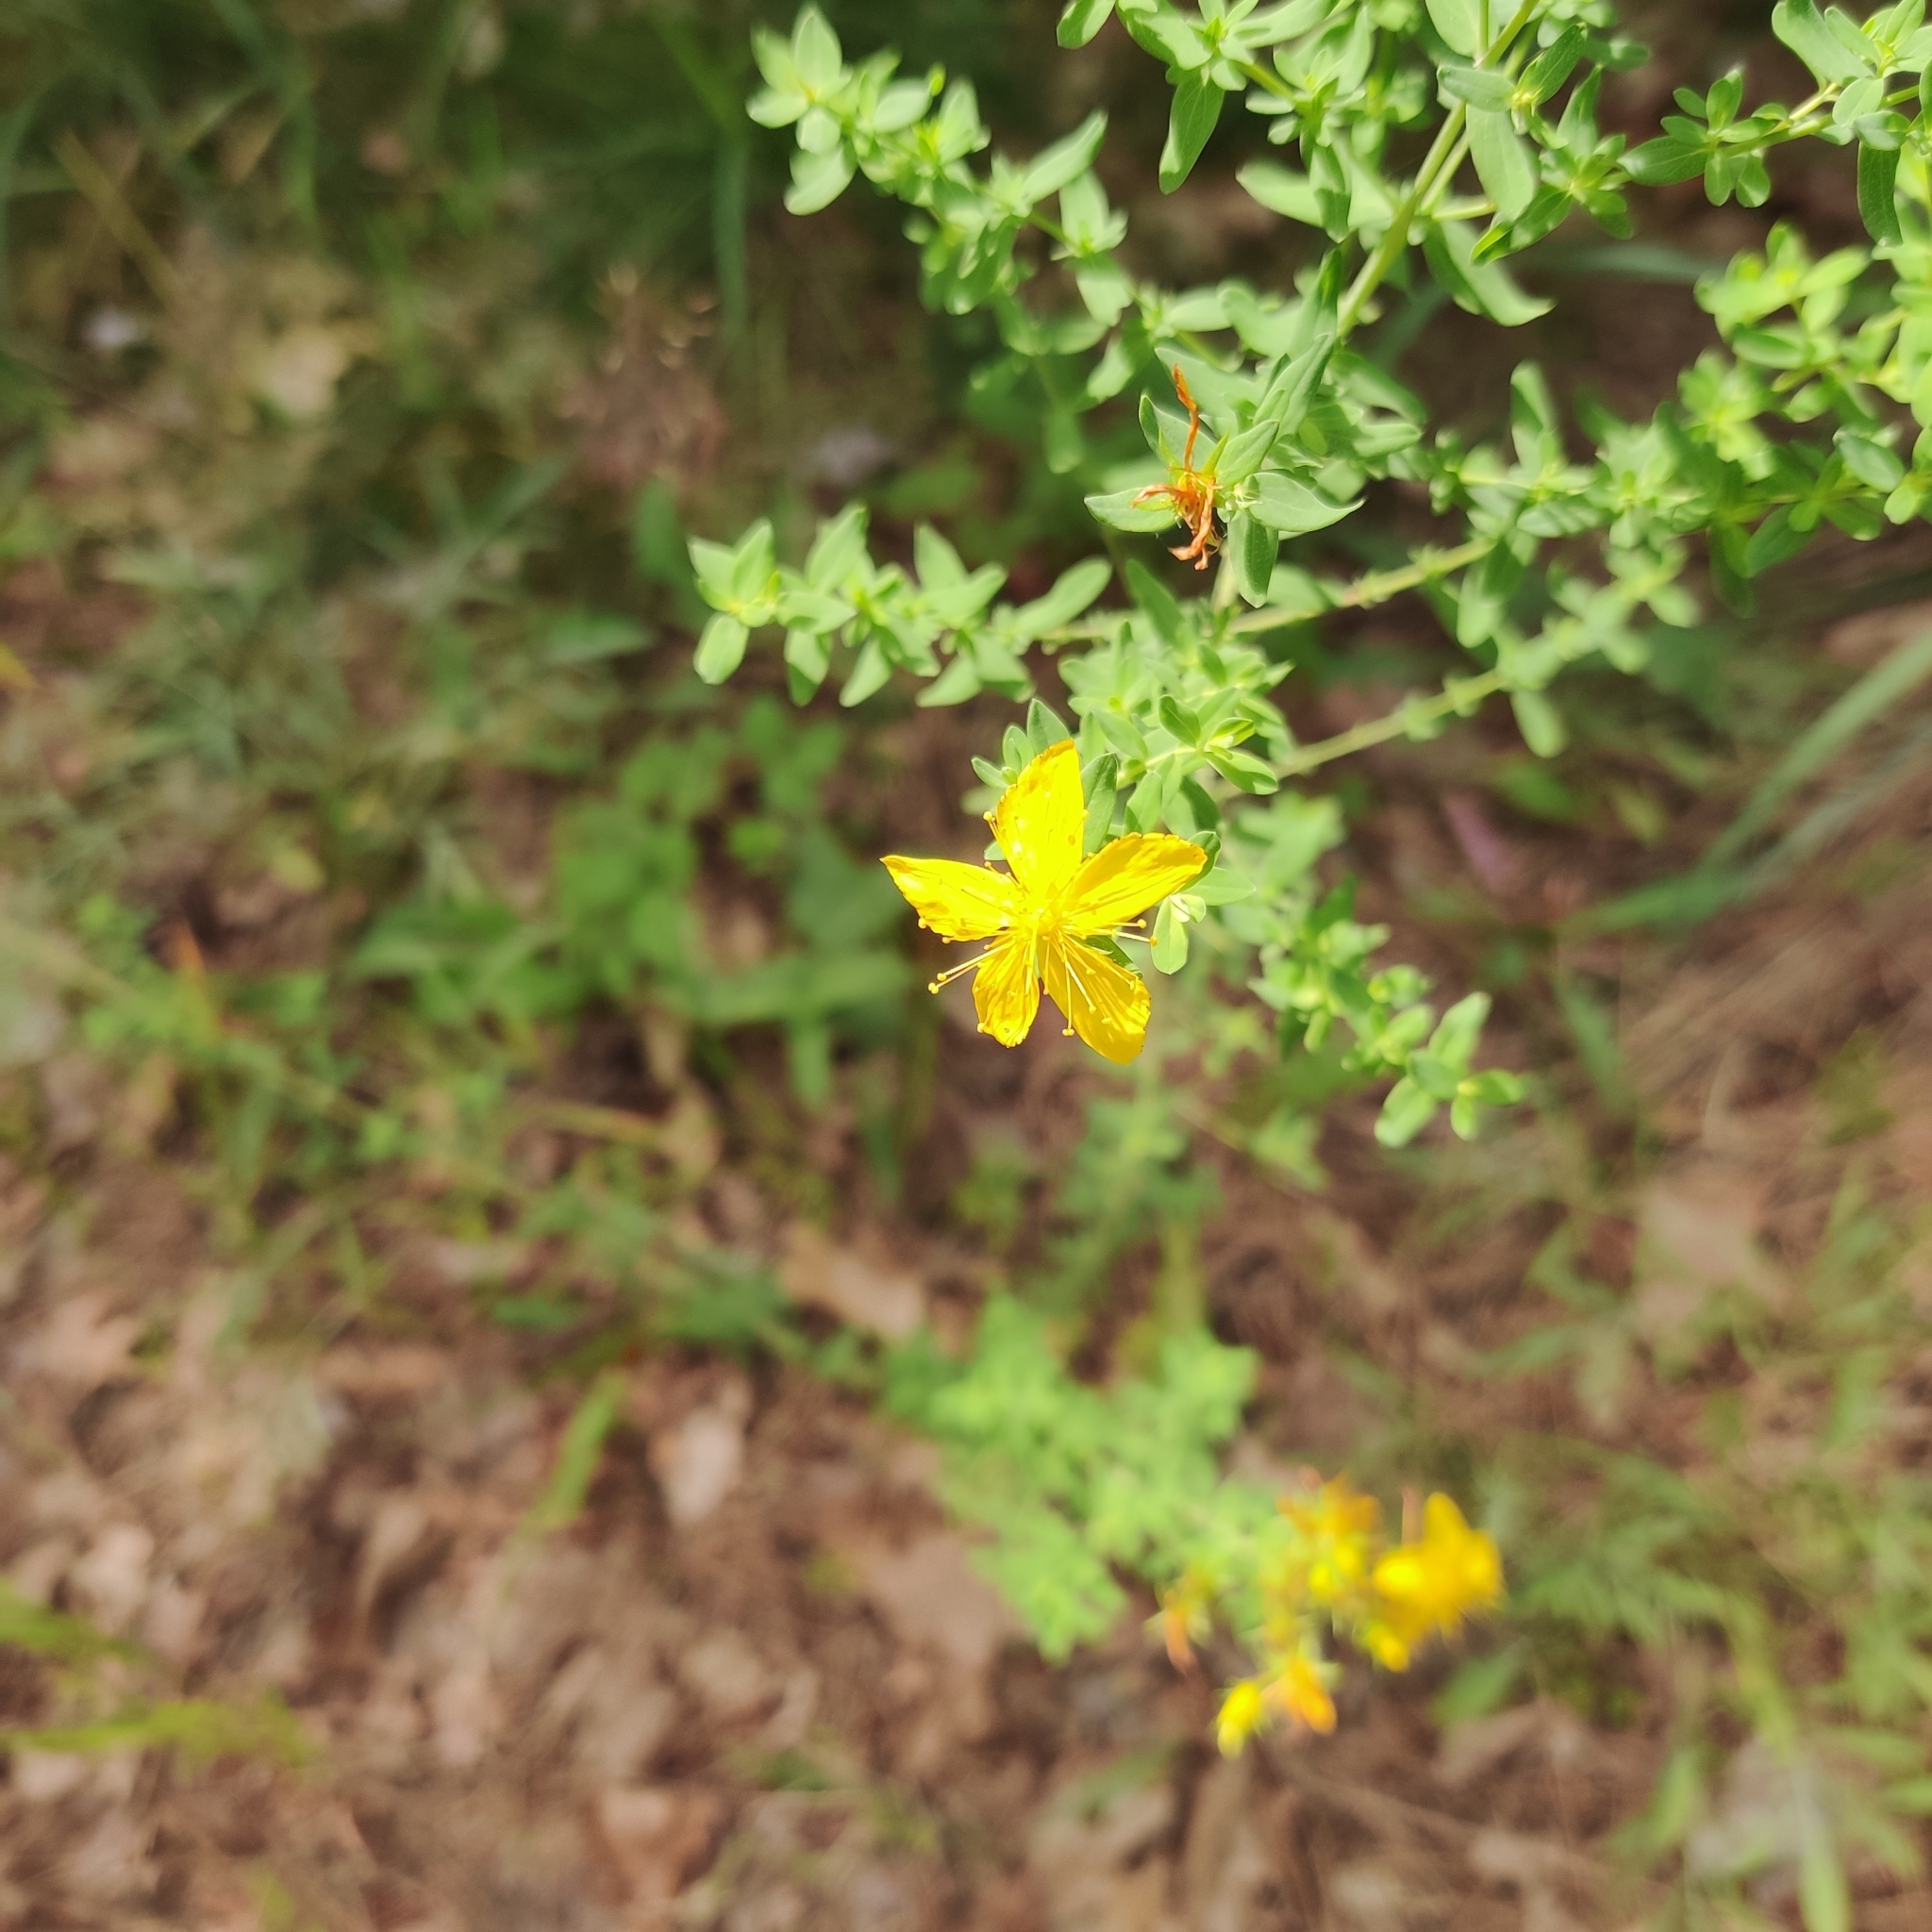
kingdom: Plantae
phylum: Tracheophyta
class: Magnoliopsida
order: Malpighiales
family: Hypericaceae
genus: Hypericum
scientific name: Hypericum perforatum
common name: Common st. johnswort
